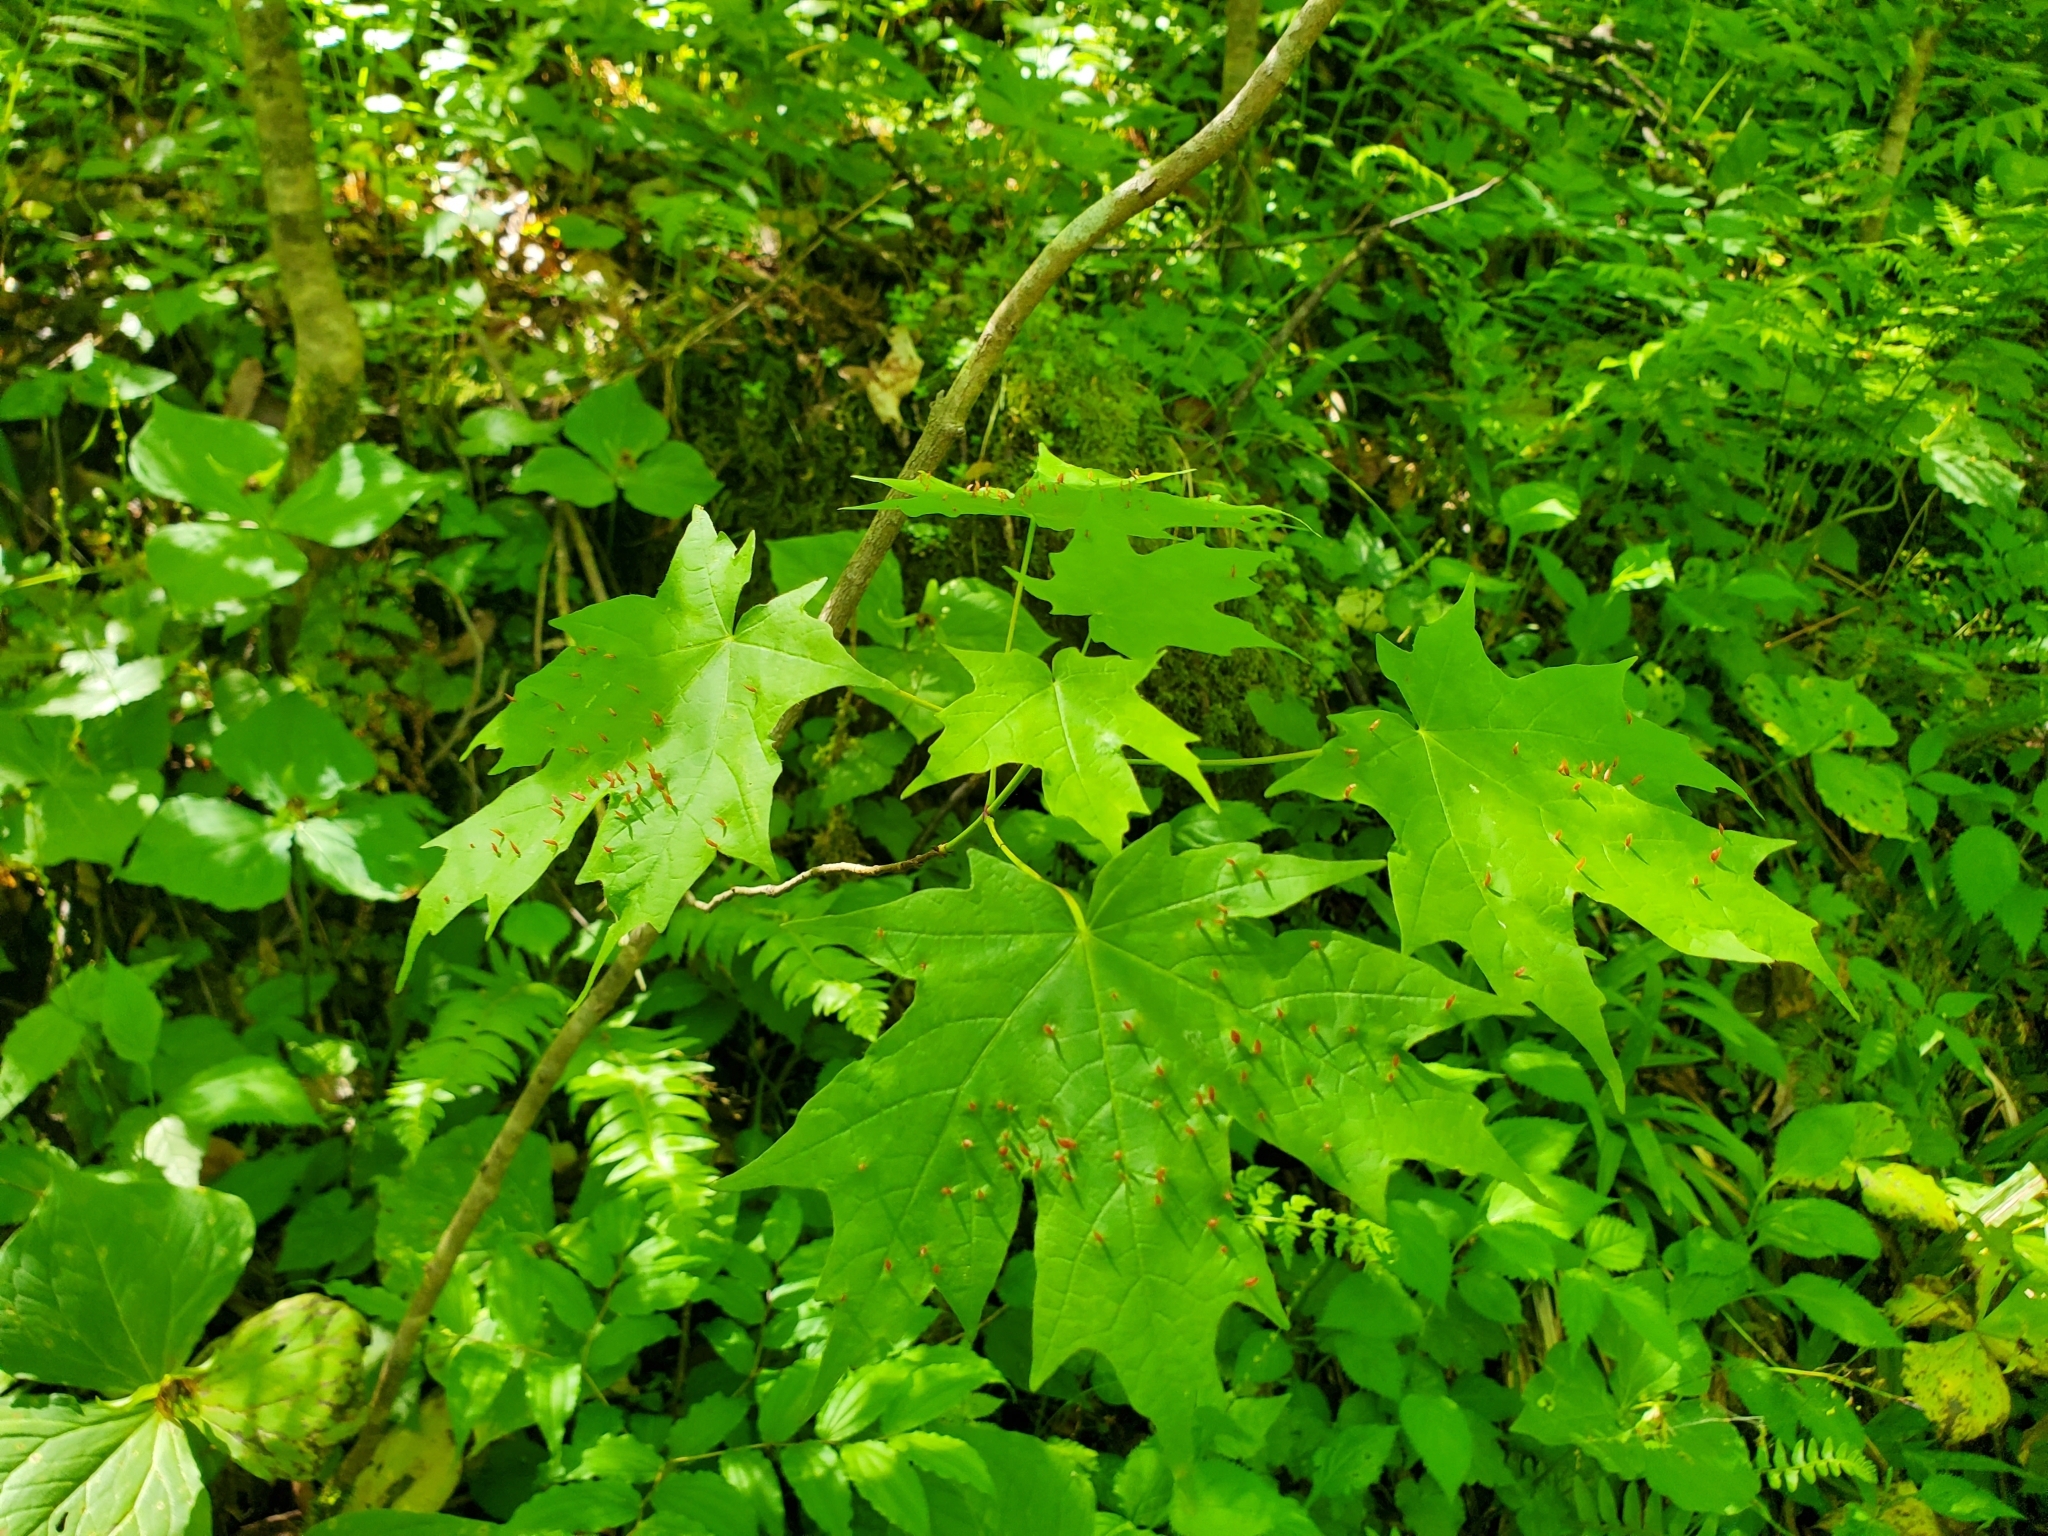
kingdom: Animalia
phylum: Arthropoda
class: Arachnida
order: Trombidiformes
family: Eriophyidae
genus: Vasates
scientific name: Vasates aceriscrumena
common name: Maple spindle gall mite
